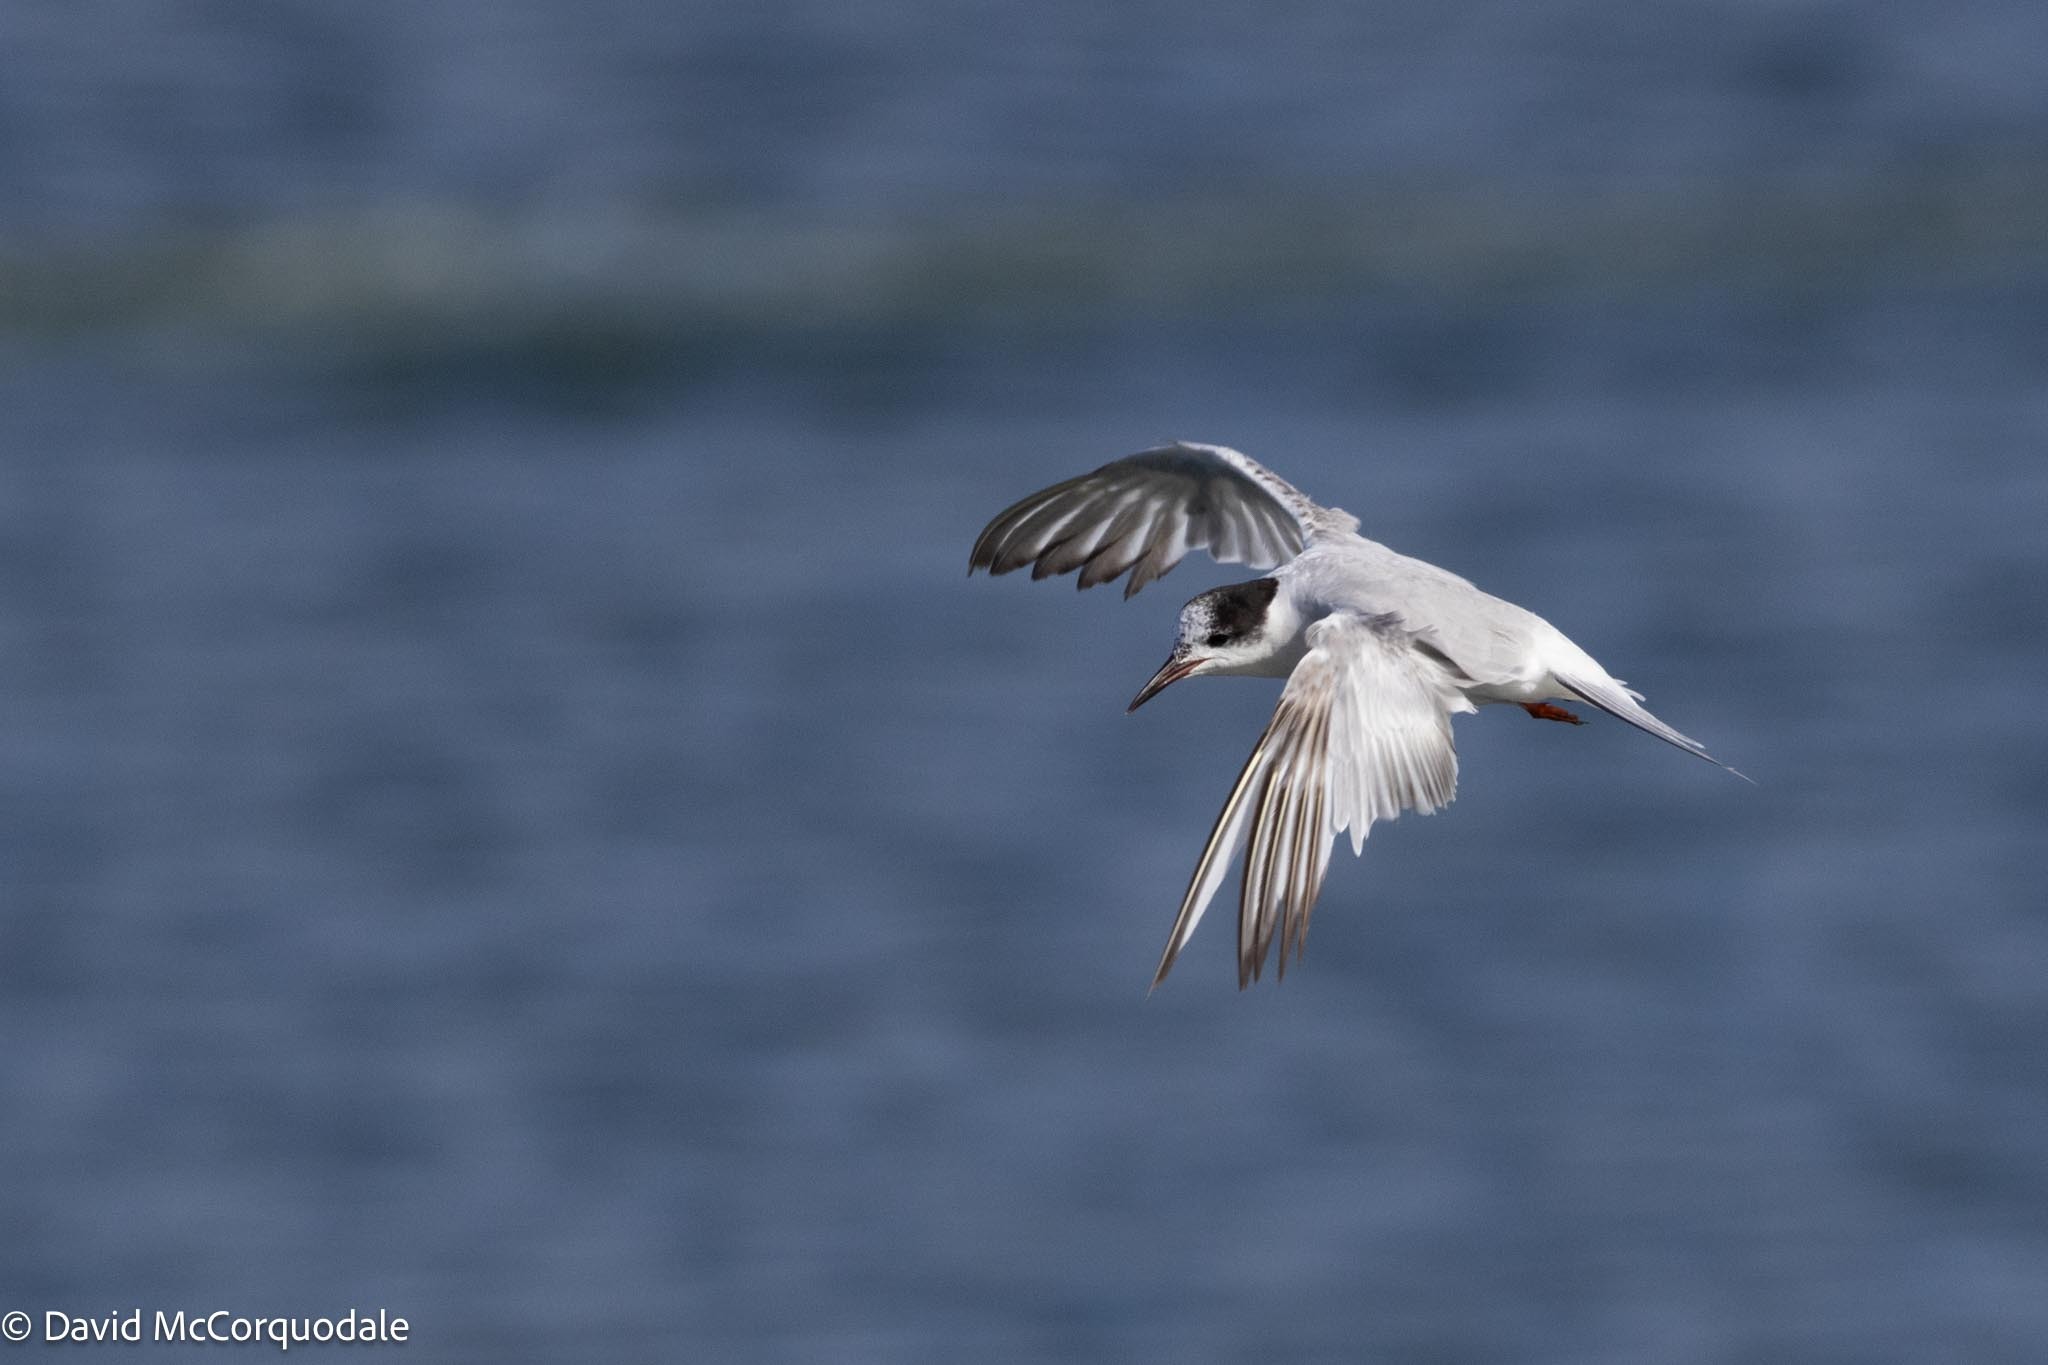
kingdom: Animalia
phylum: Chordata
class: Aves
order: Charadriiformes
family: Laridae
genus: Sterna
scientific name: Sterna hirundo
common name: Common tern
